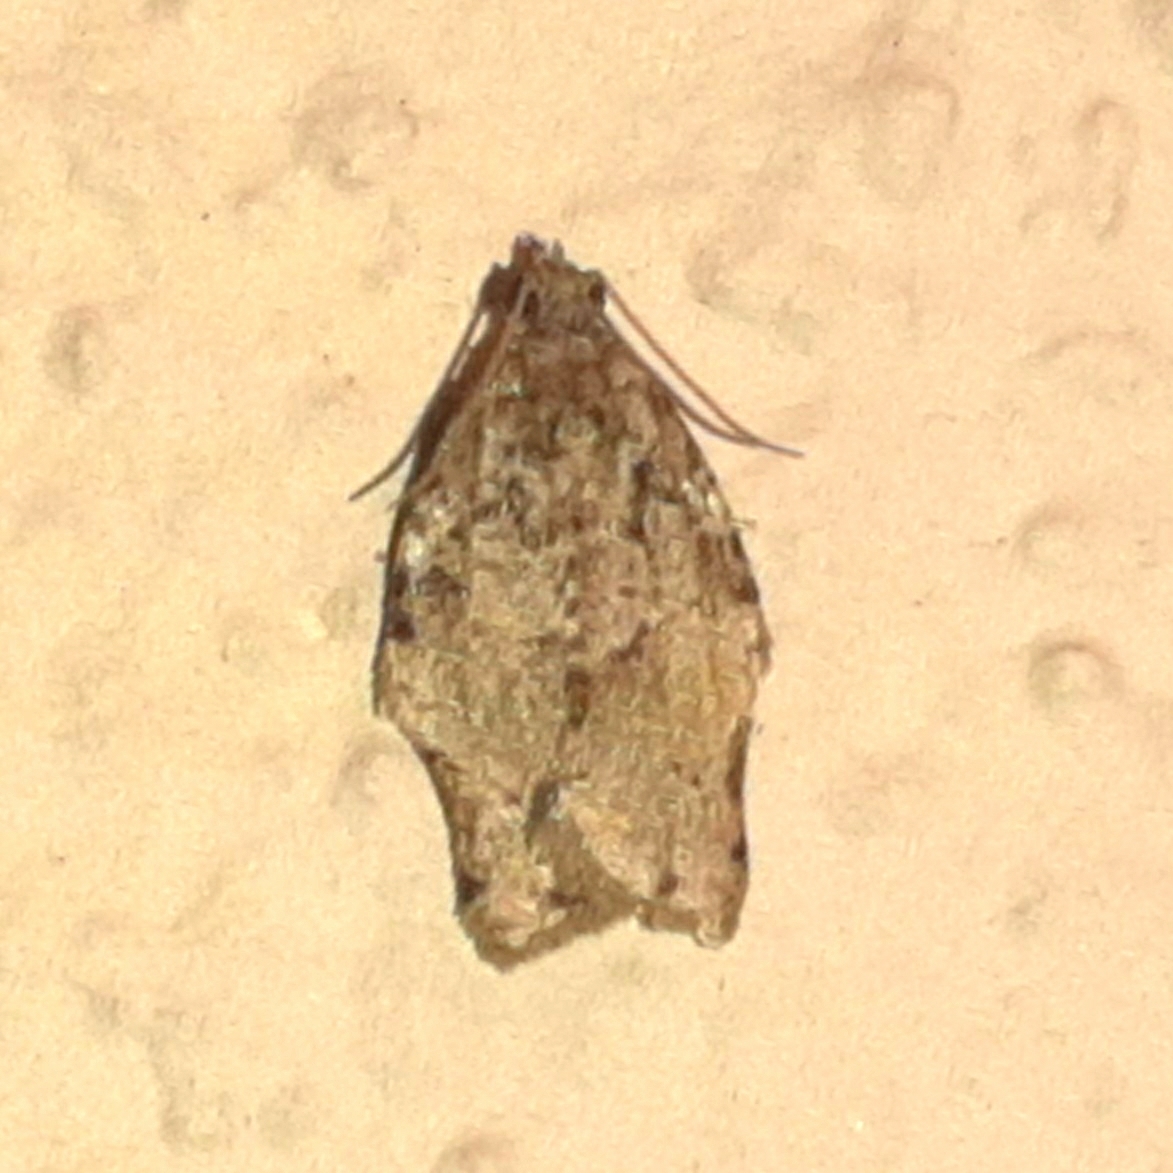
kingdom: Animalia
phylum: Arthropoda
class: Insecta
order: Lepidoptera
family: Tortricidae
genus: Clepsis
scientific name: Clepsis abscisana
